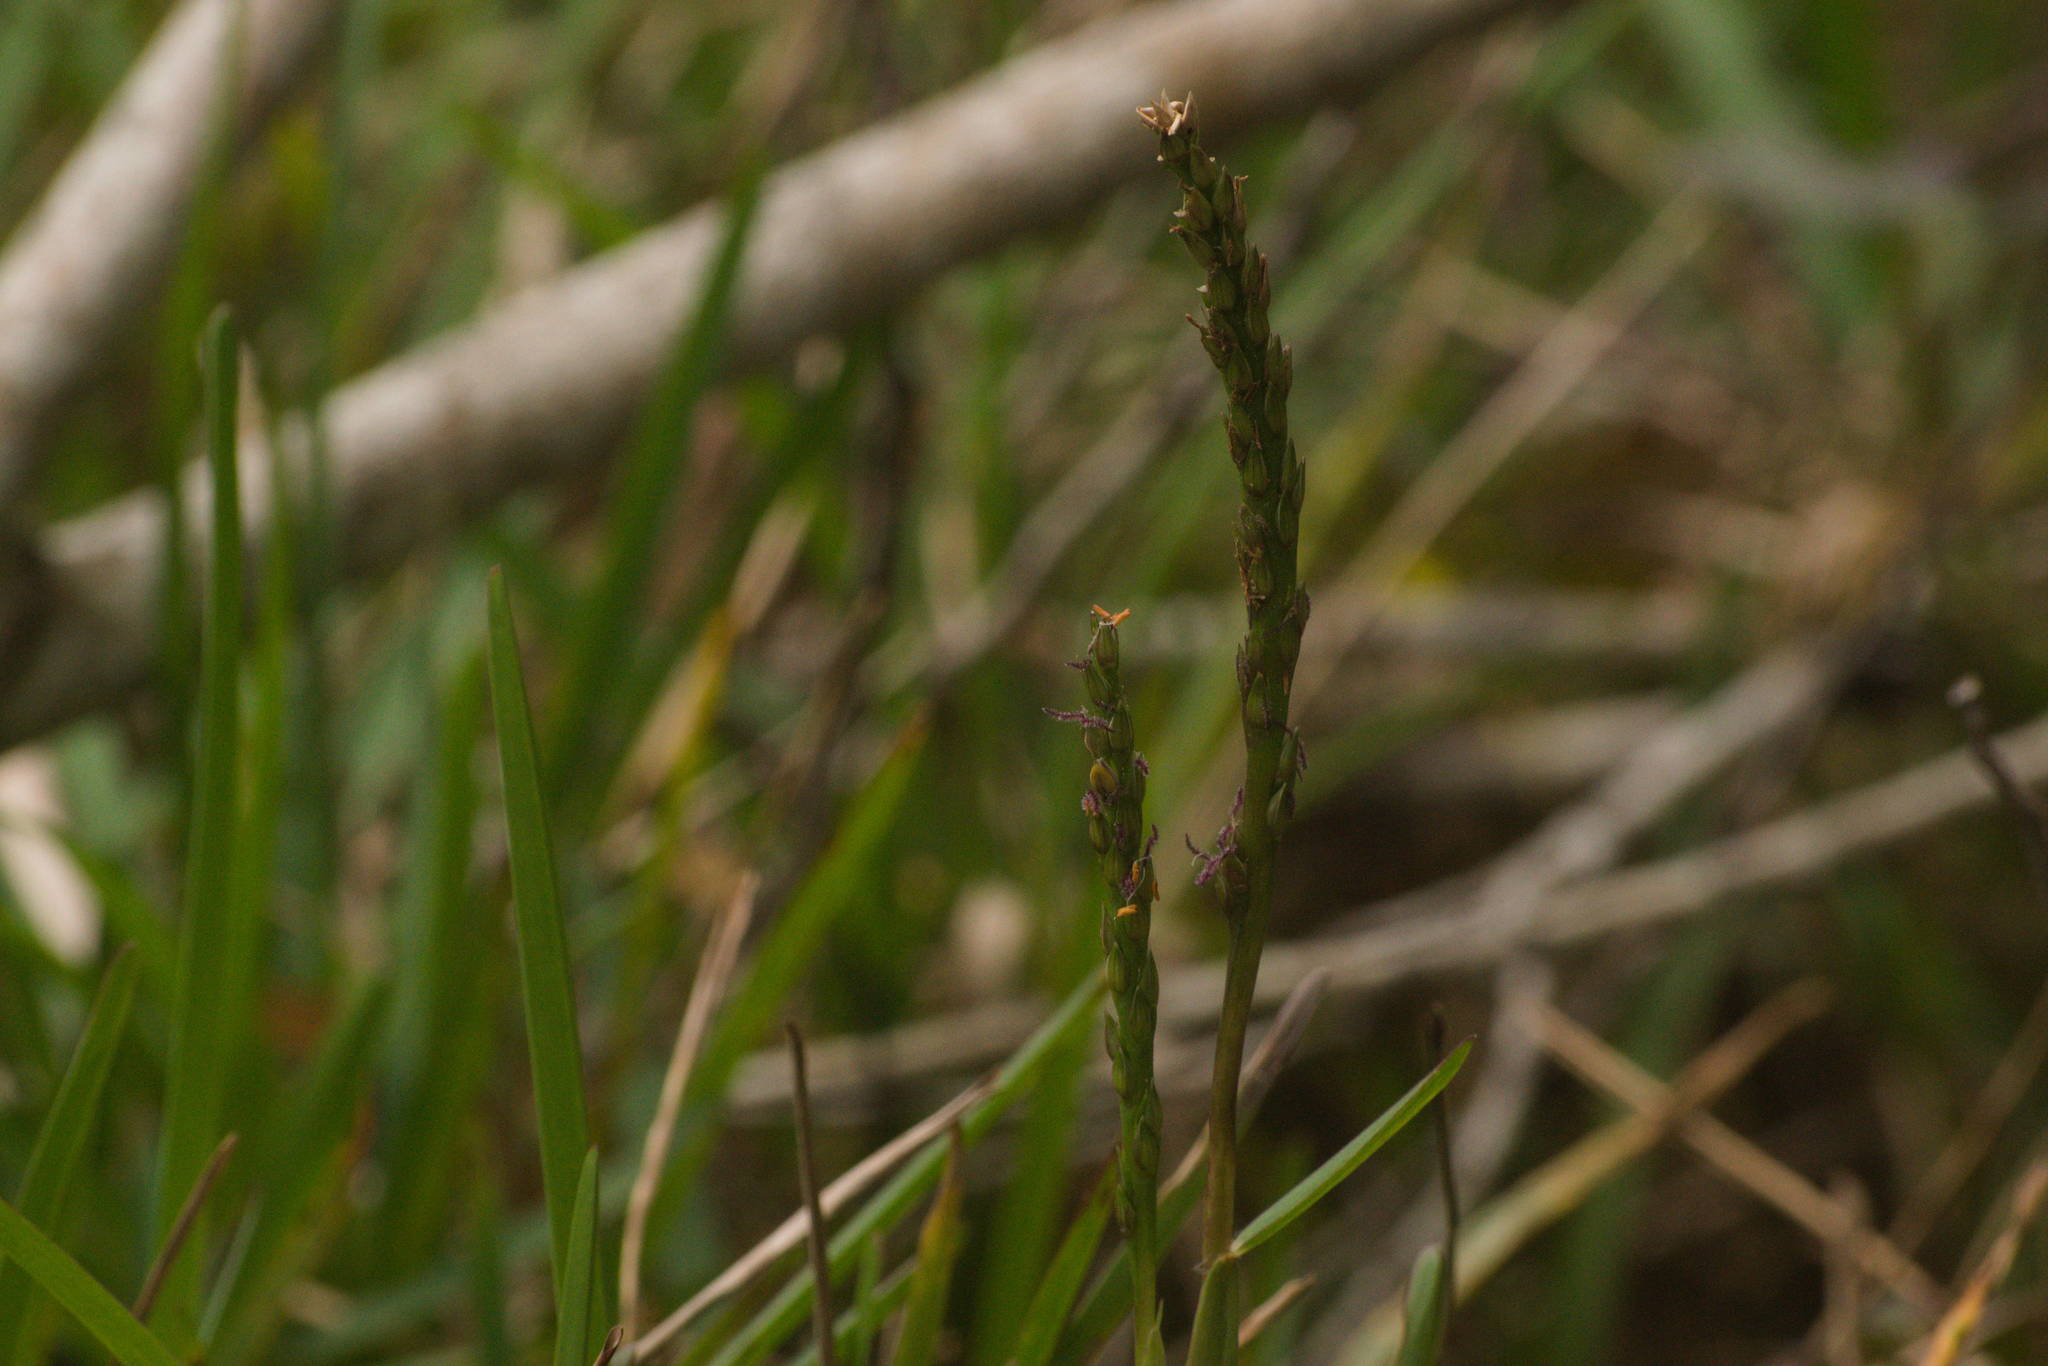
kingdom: Plantae
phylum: Tracheophyta
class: Liliopsida
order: Poales
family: Poaceae
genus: Stenotaphrum
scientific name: Stenotaphrum secundatum
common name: St. augustine grass
